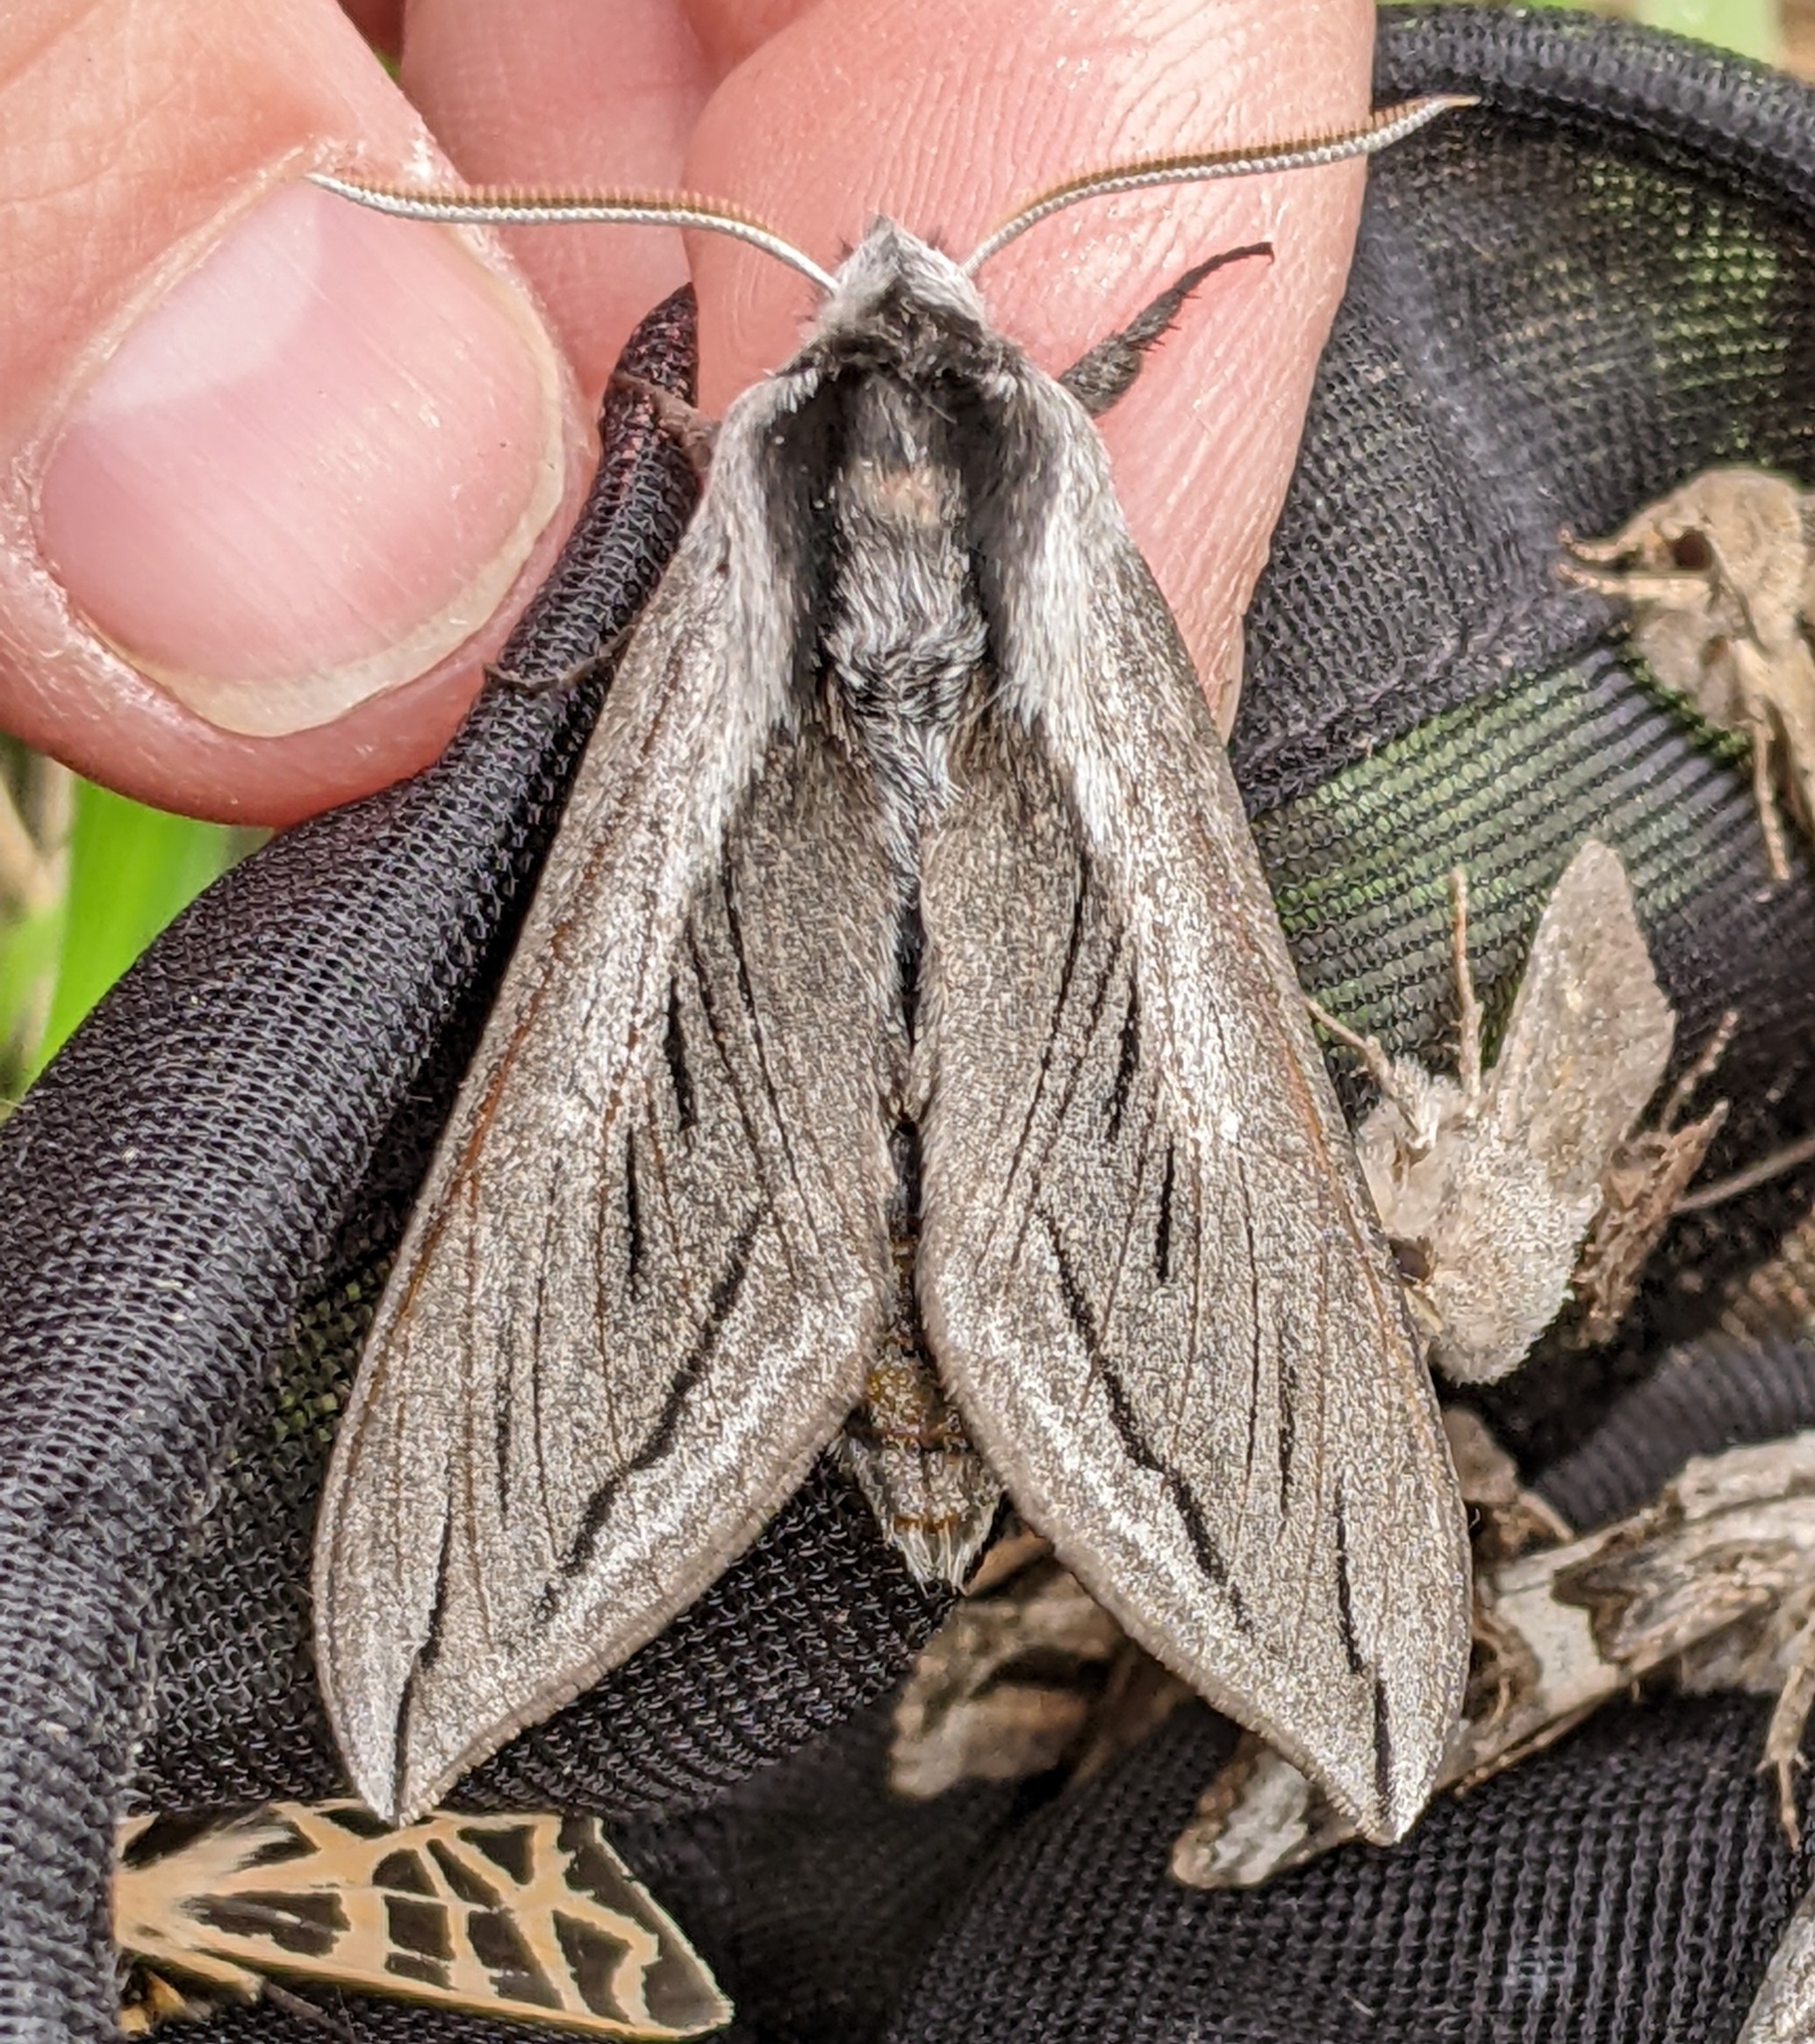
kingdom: Animalia
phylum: Arthropoda
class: Insecta
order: Lepidoptera
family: Sphingidae
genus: Sphinx
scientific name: Sphinx vashti
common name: Snowberry sphinx
